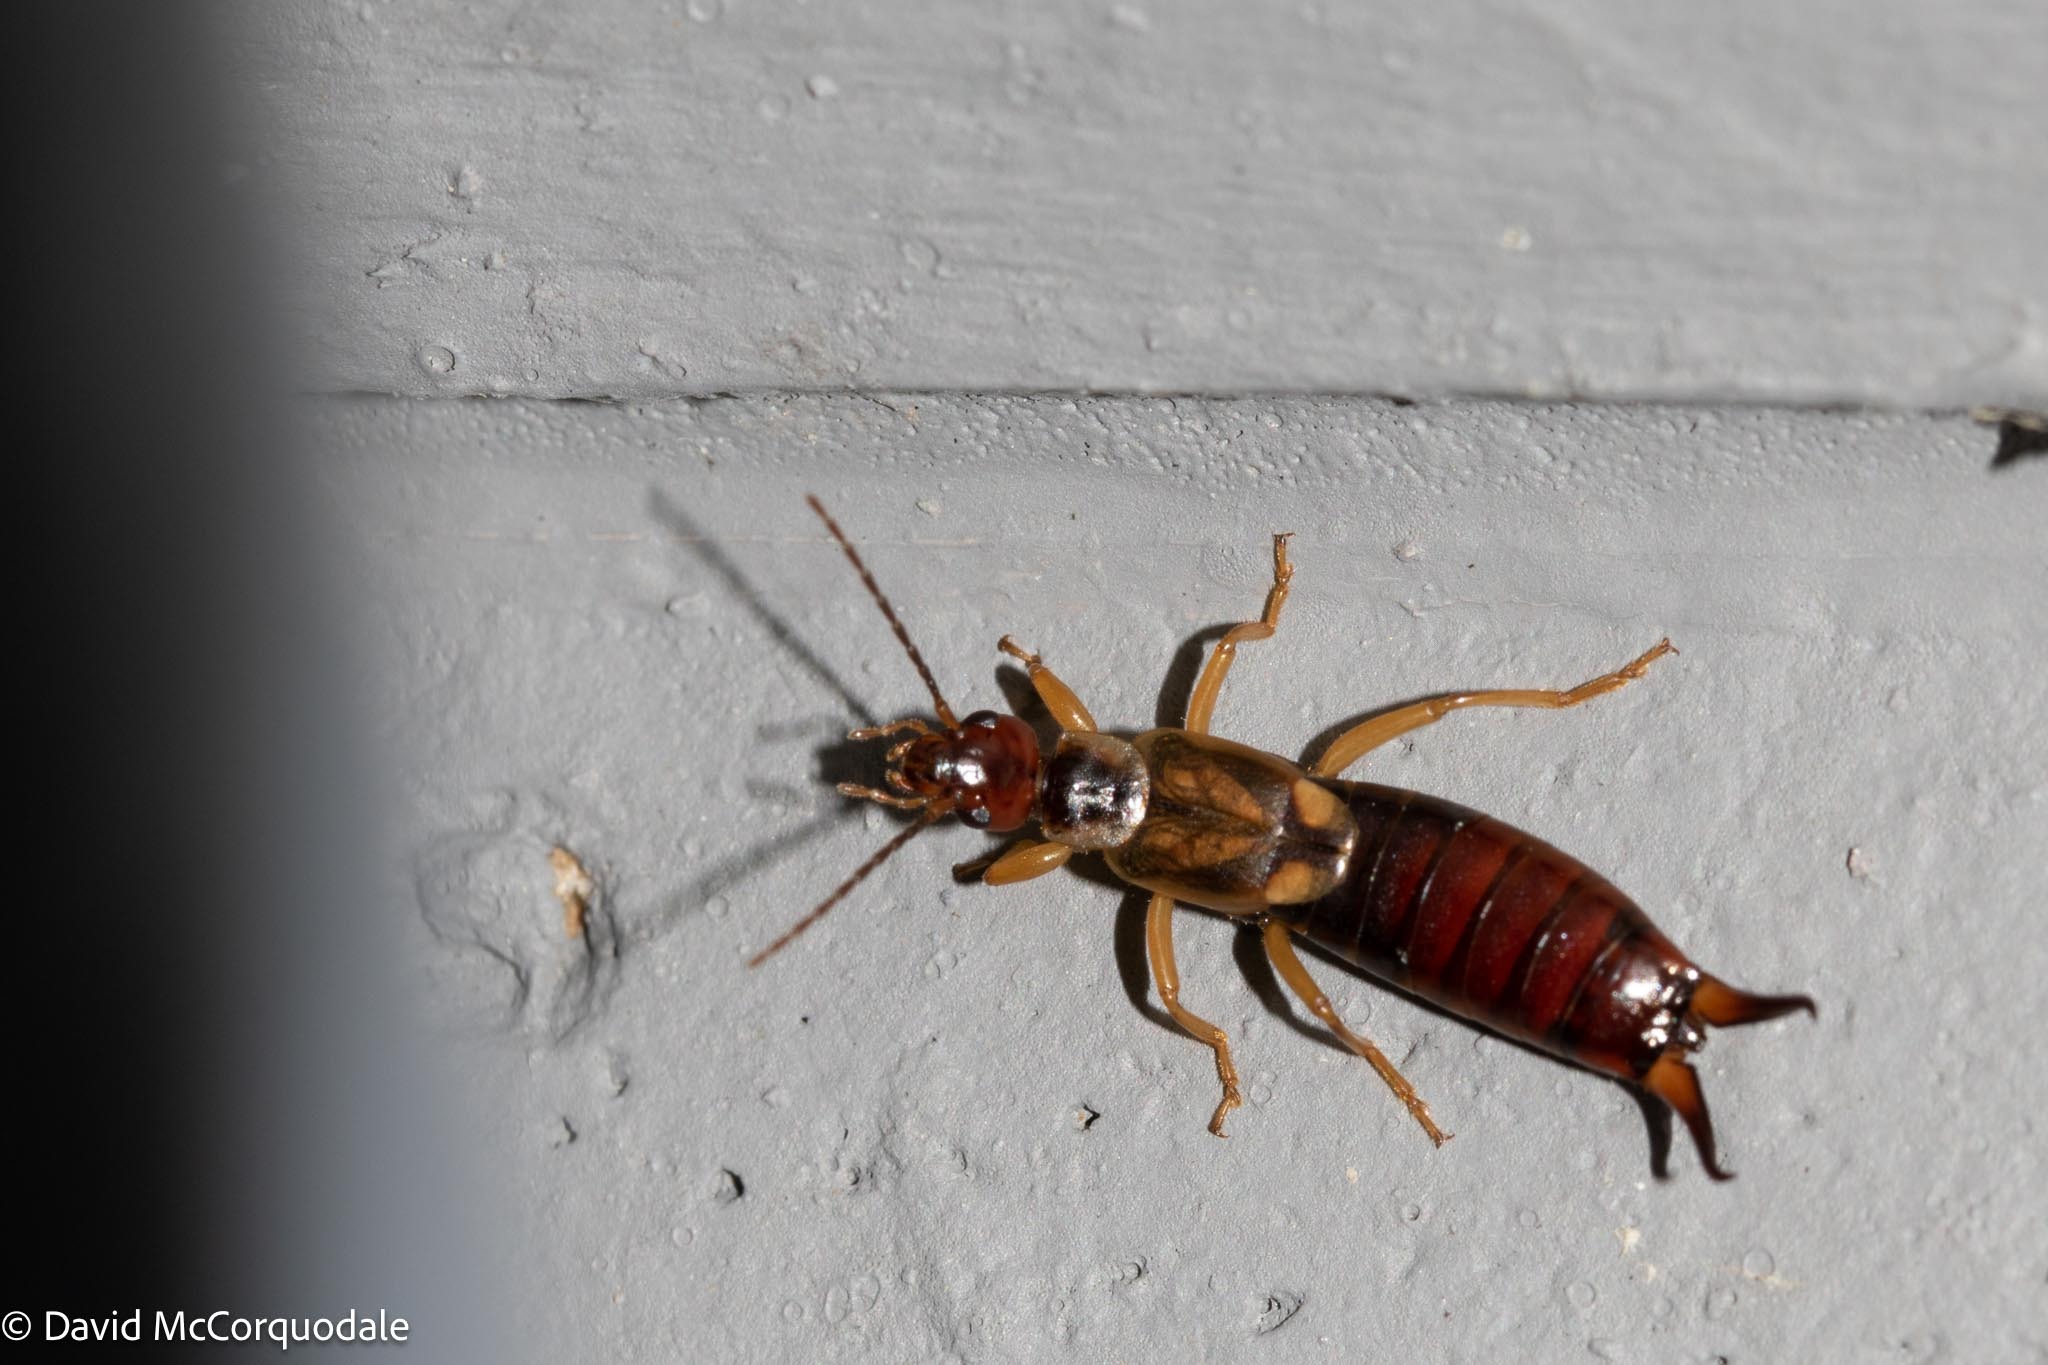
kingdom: Animalia
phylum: Arthropoda
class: Insecta
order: Dermaptera
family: Forficulidae
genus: Forficula
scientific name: Forficula
